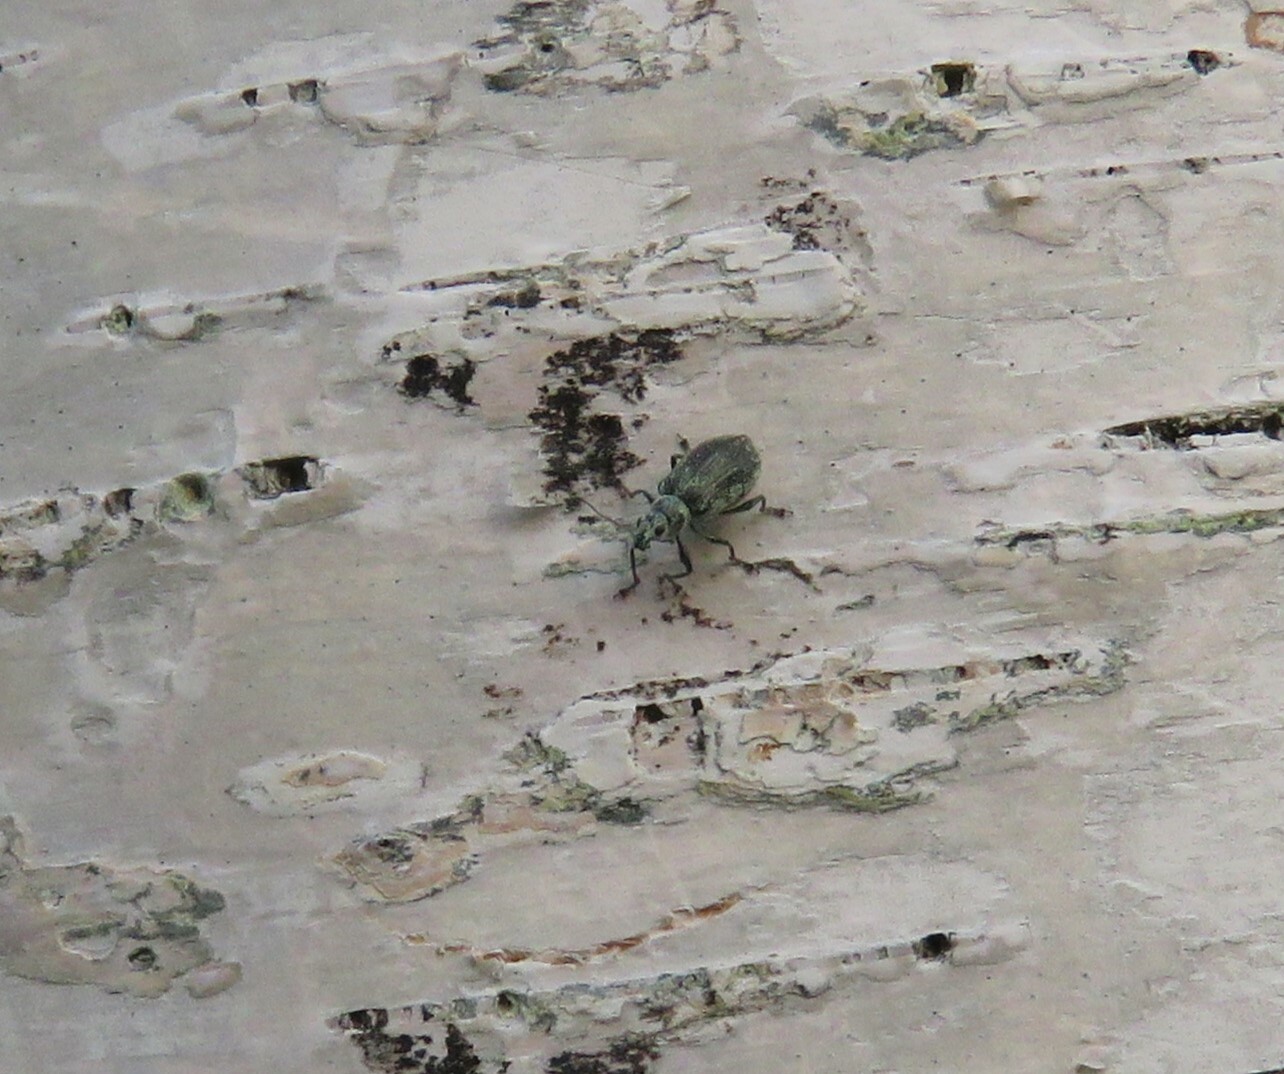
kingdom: Animalia
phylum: Arthropoda
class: Insecta
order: Coleoptera
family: Curculionidae
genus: Polydrusus
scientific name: Polydrusus cervinus
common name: Weevil
